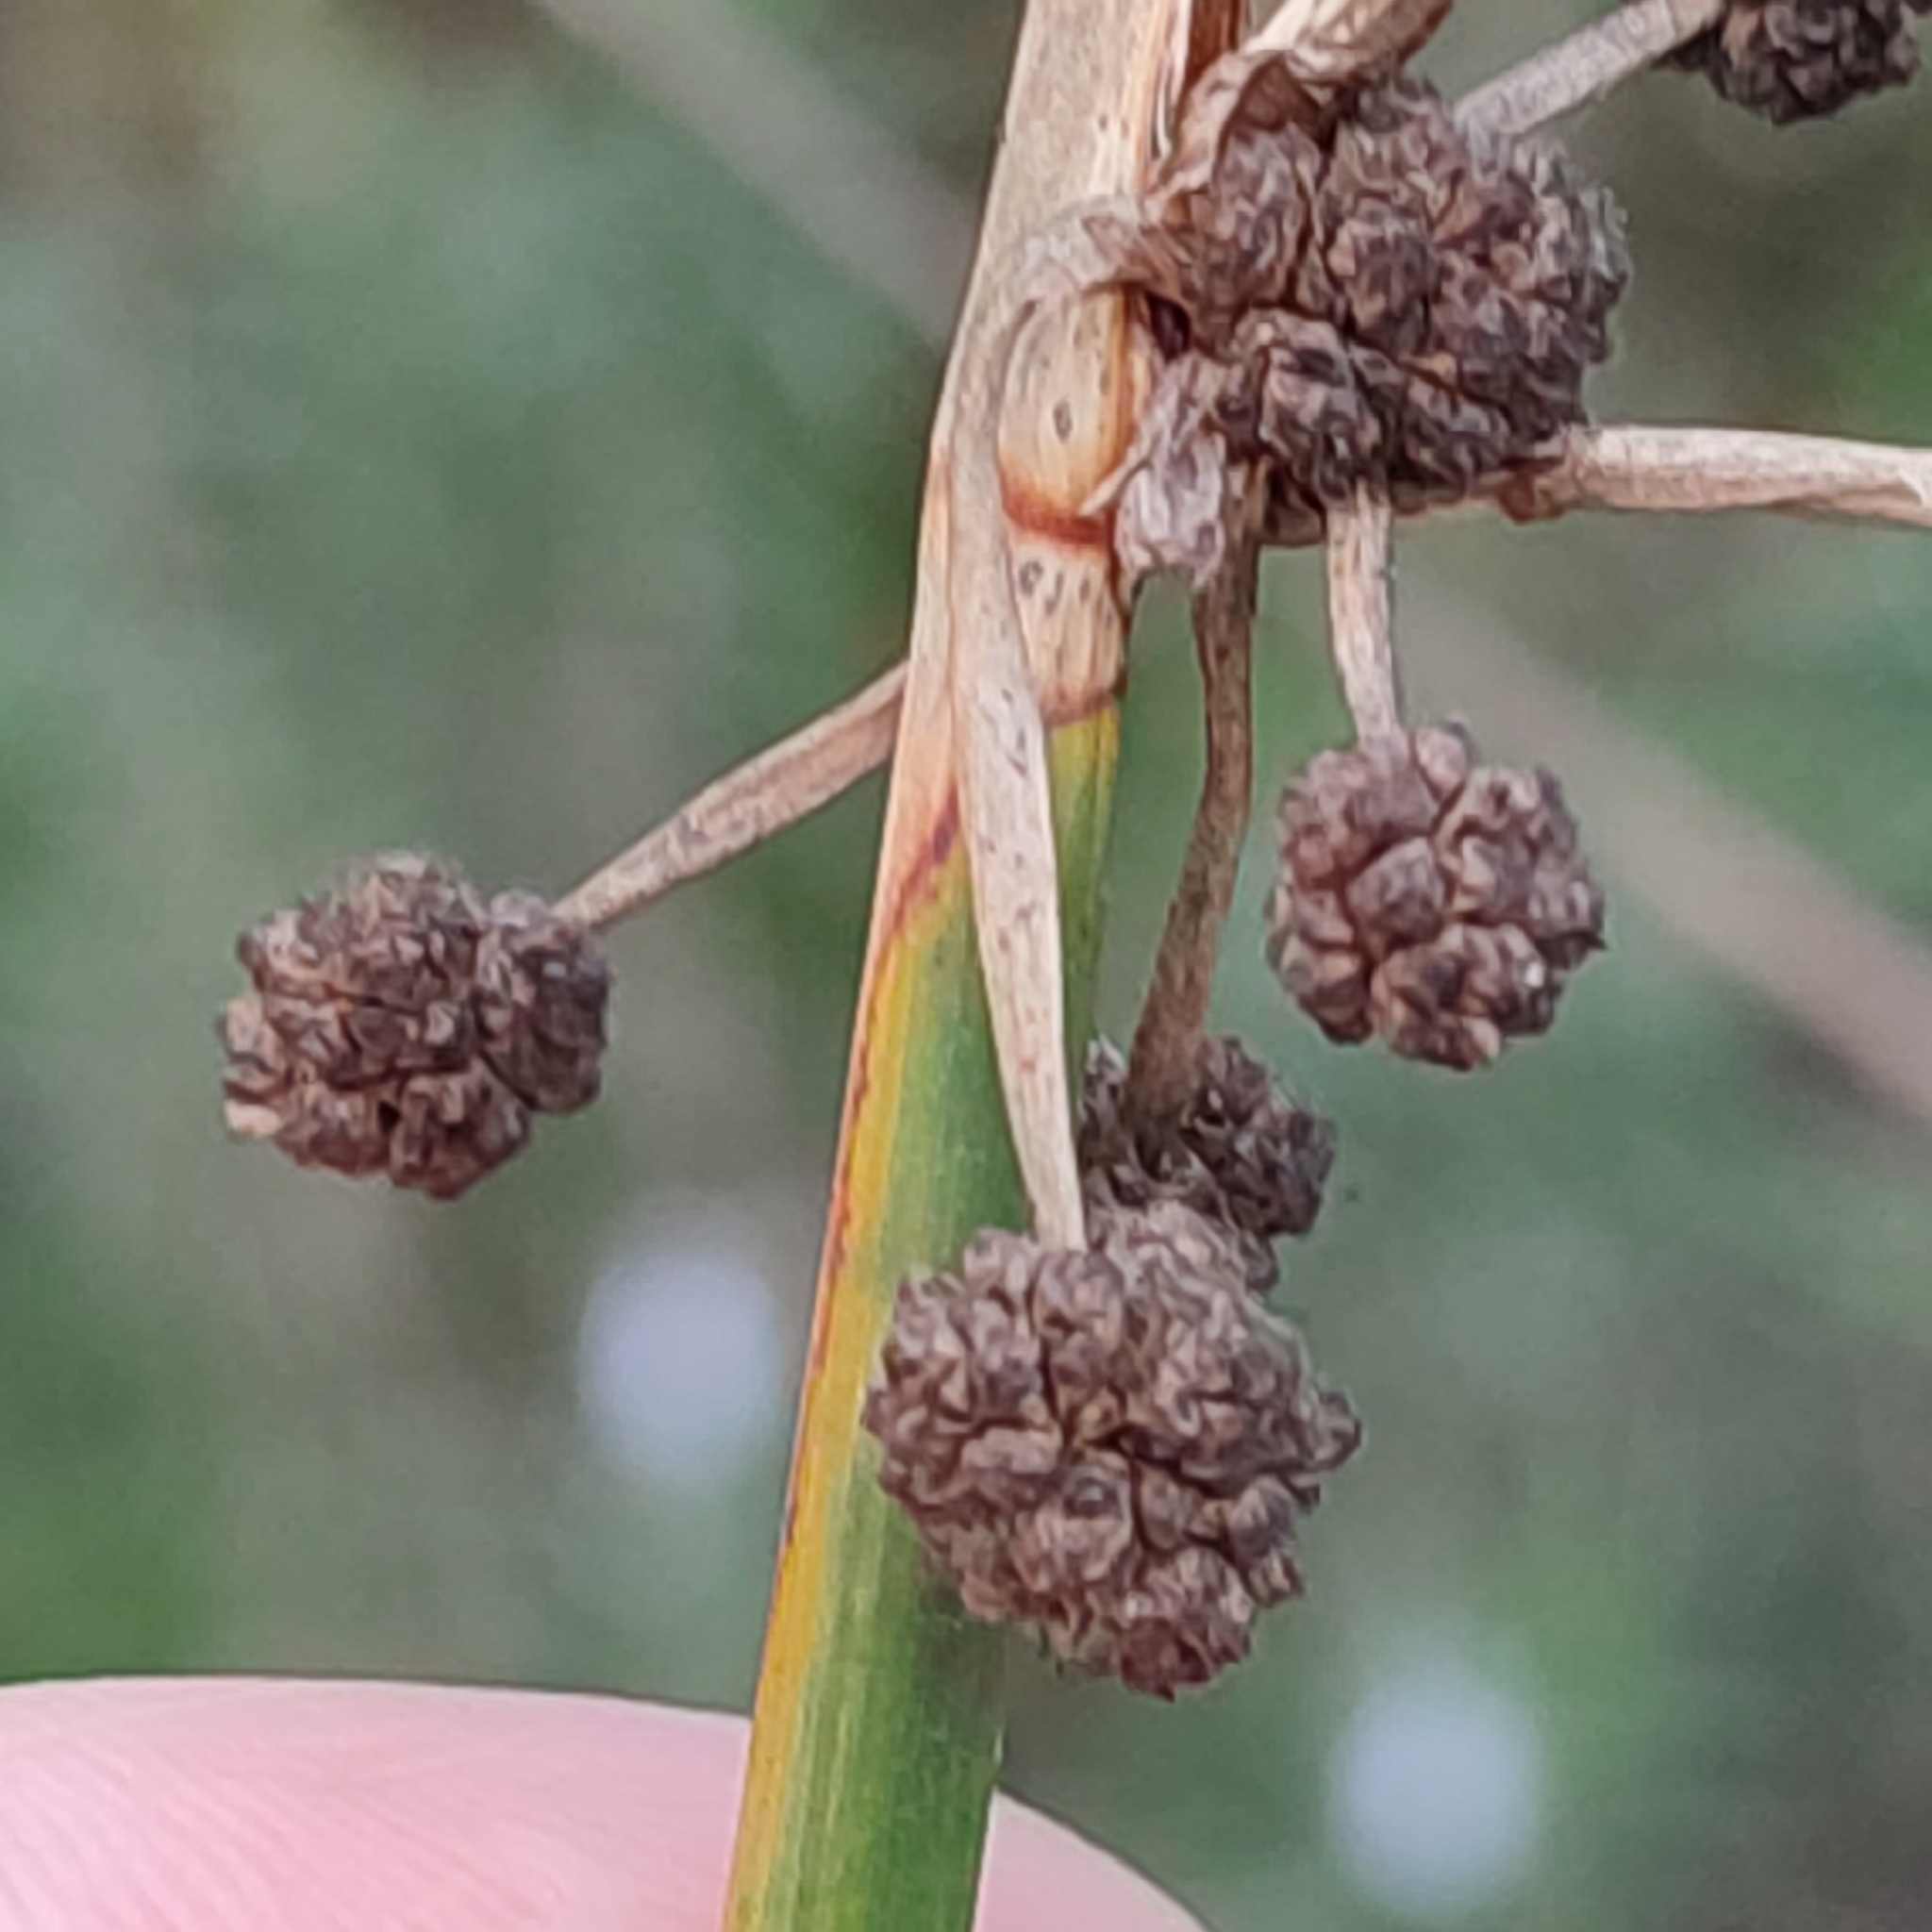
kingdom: Plantae
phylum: Tracheophyta
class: Liliopsida
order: Poales
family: Cyperaceae
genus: Scirpoides
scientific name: Scirpoides holoschoenus
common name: Round-headed club-rush
